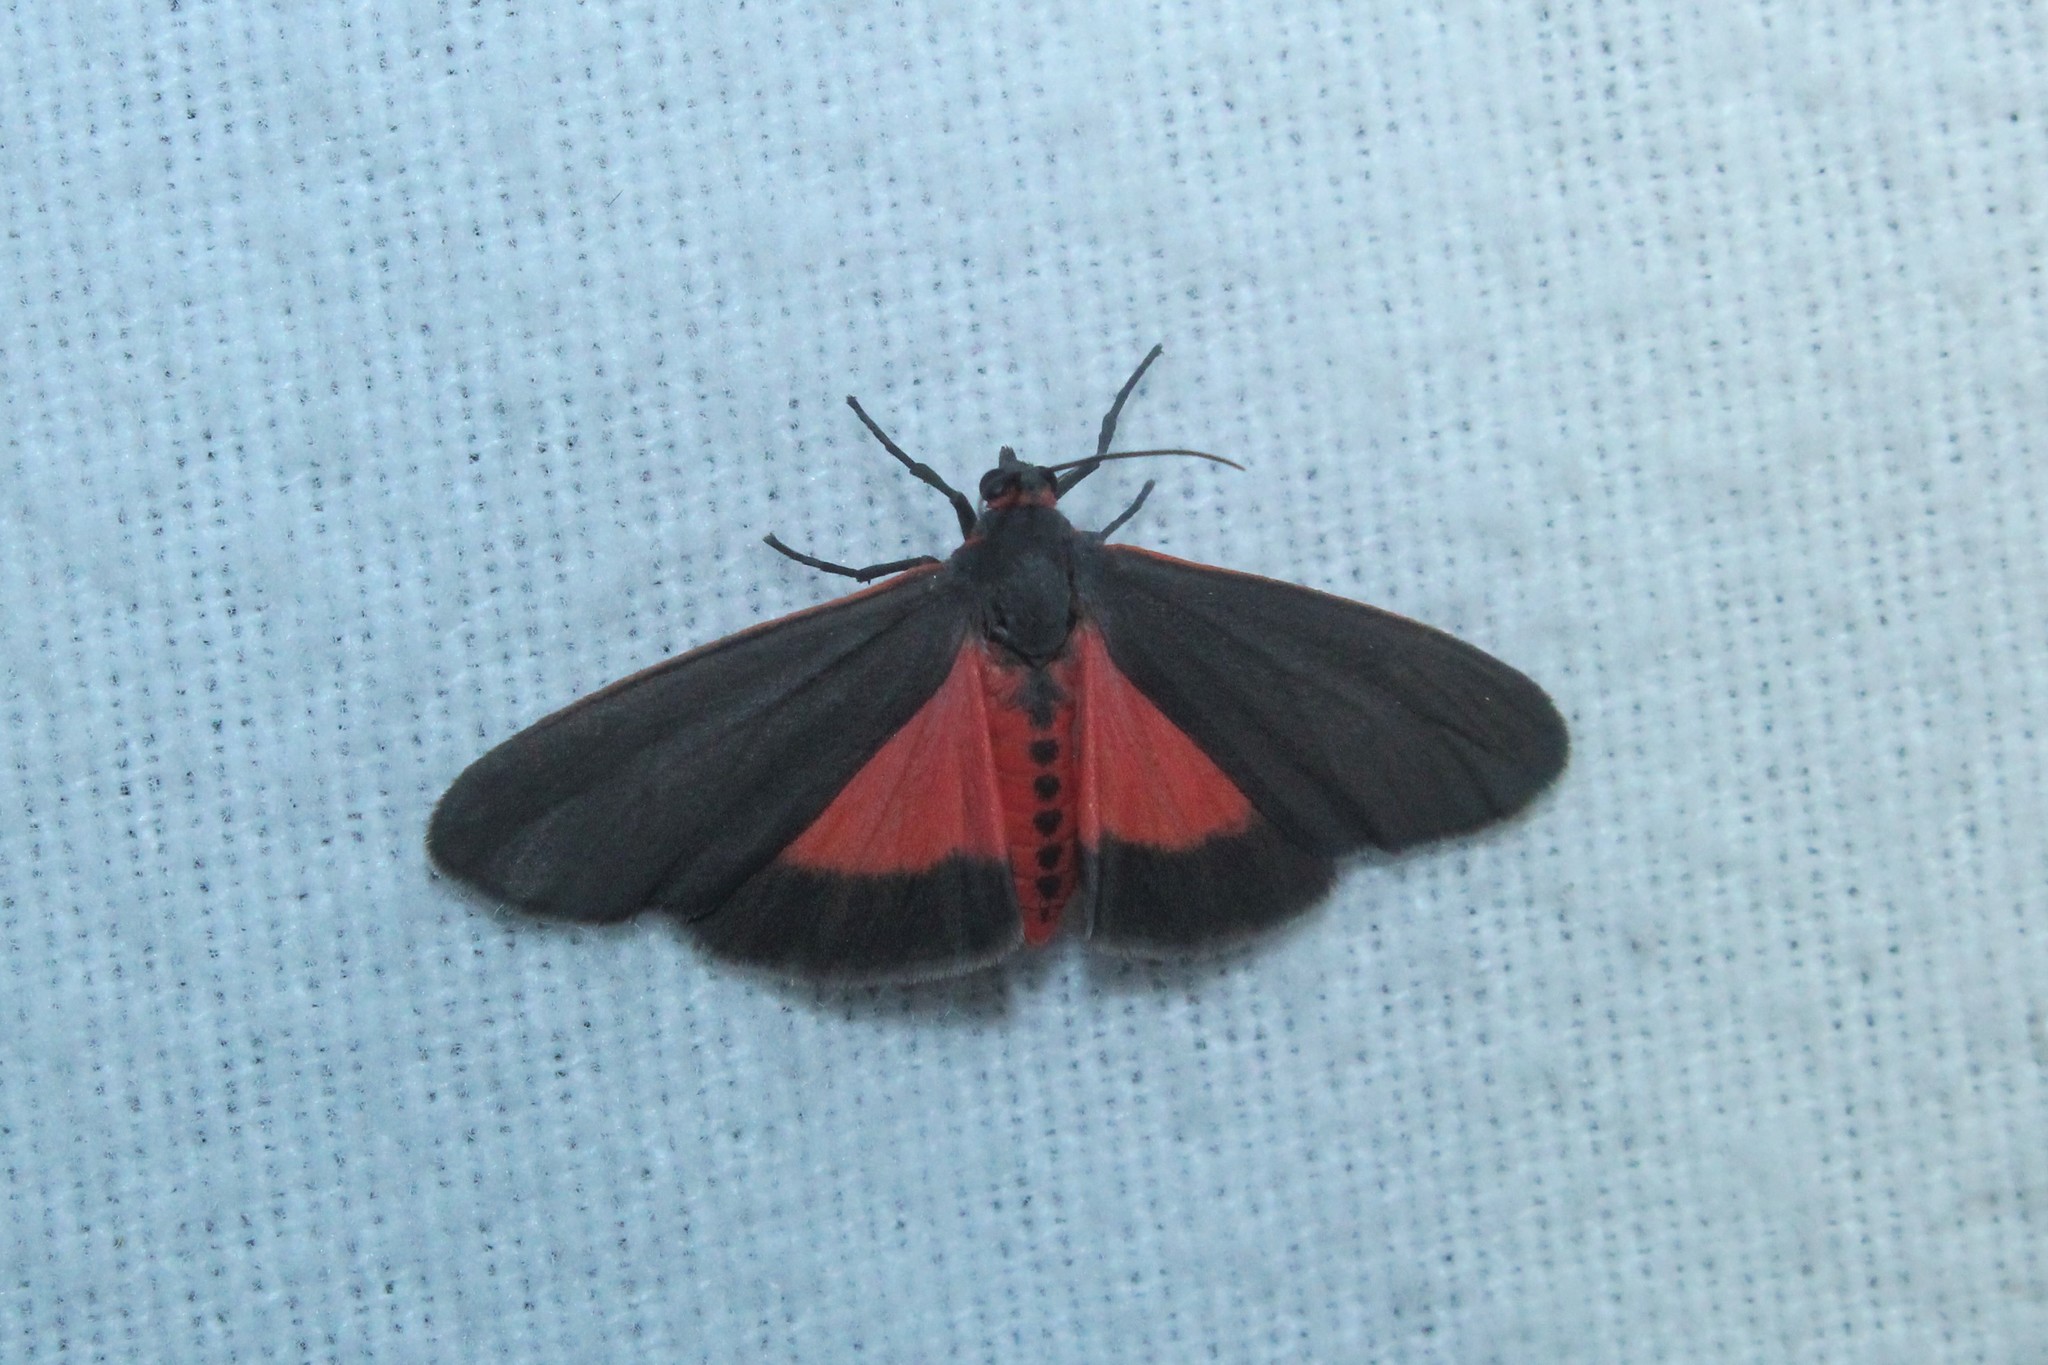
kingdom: Animalia
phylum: Arthropoda
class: Insecta
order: Lepidoptera
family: Erebidae
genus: Virbia
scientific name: Virbia laeta
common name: Joyful holomelina moth
